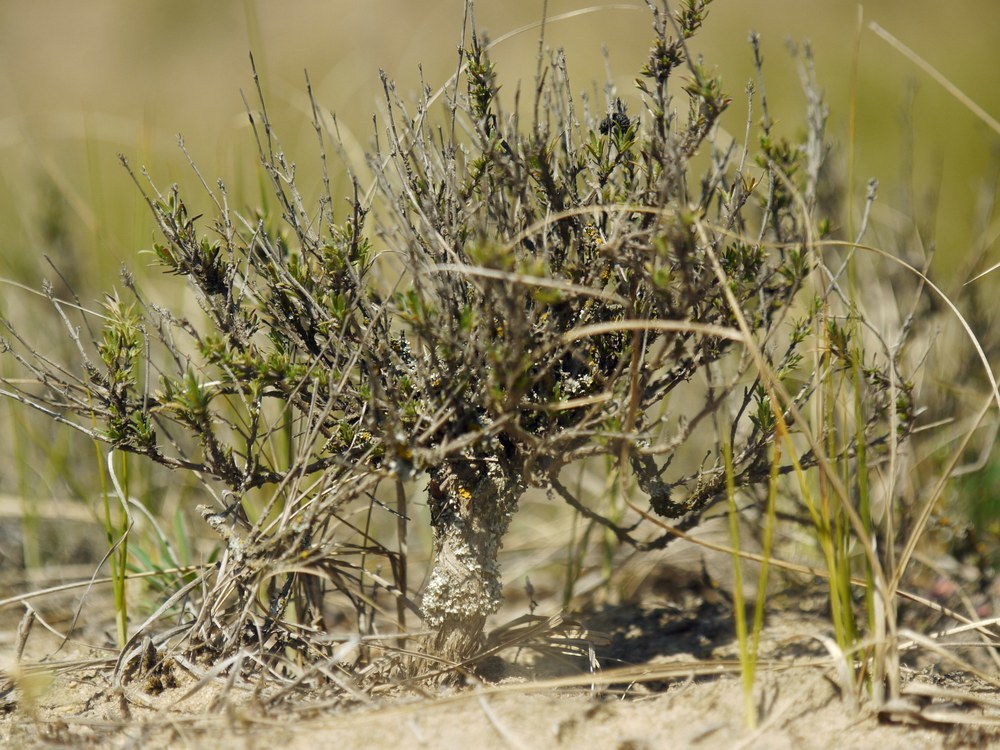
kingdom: Plantae
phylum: Tracheophyta
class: Magnoliopsida
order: Lamiales
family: Lamiaceae
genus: Thymus
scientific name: Thymus pallasianus
